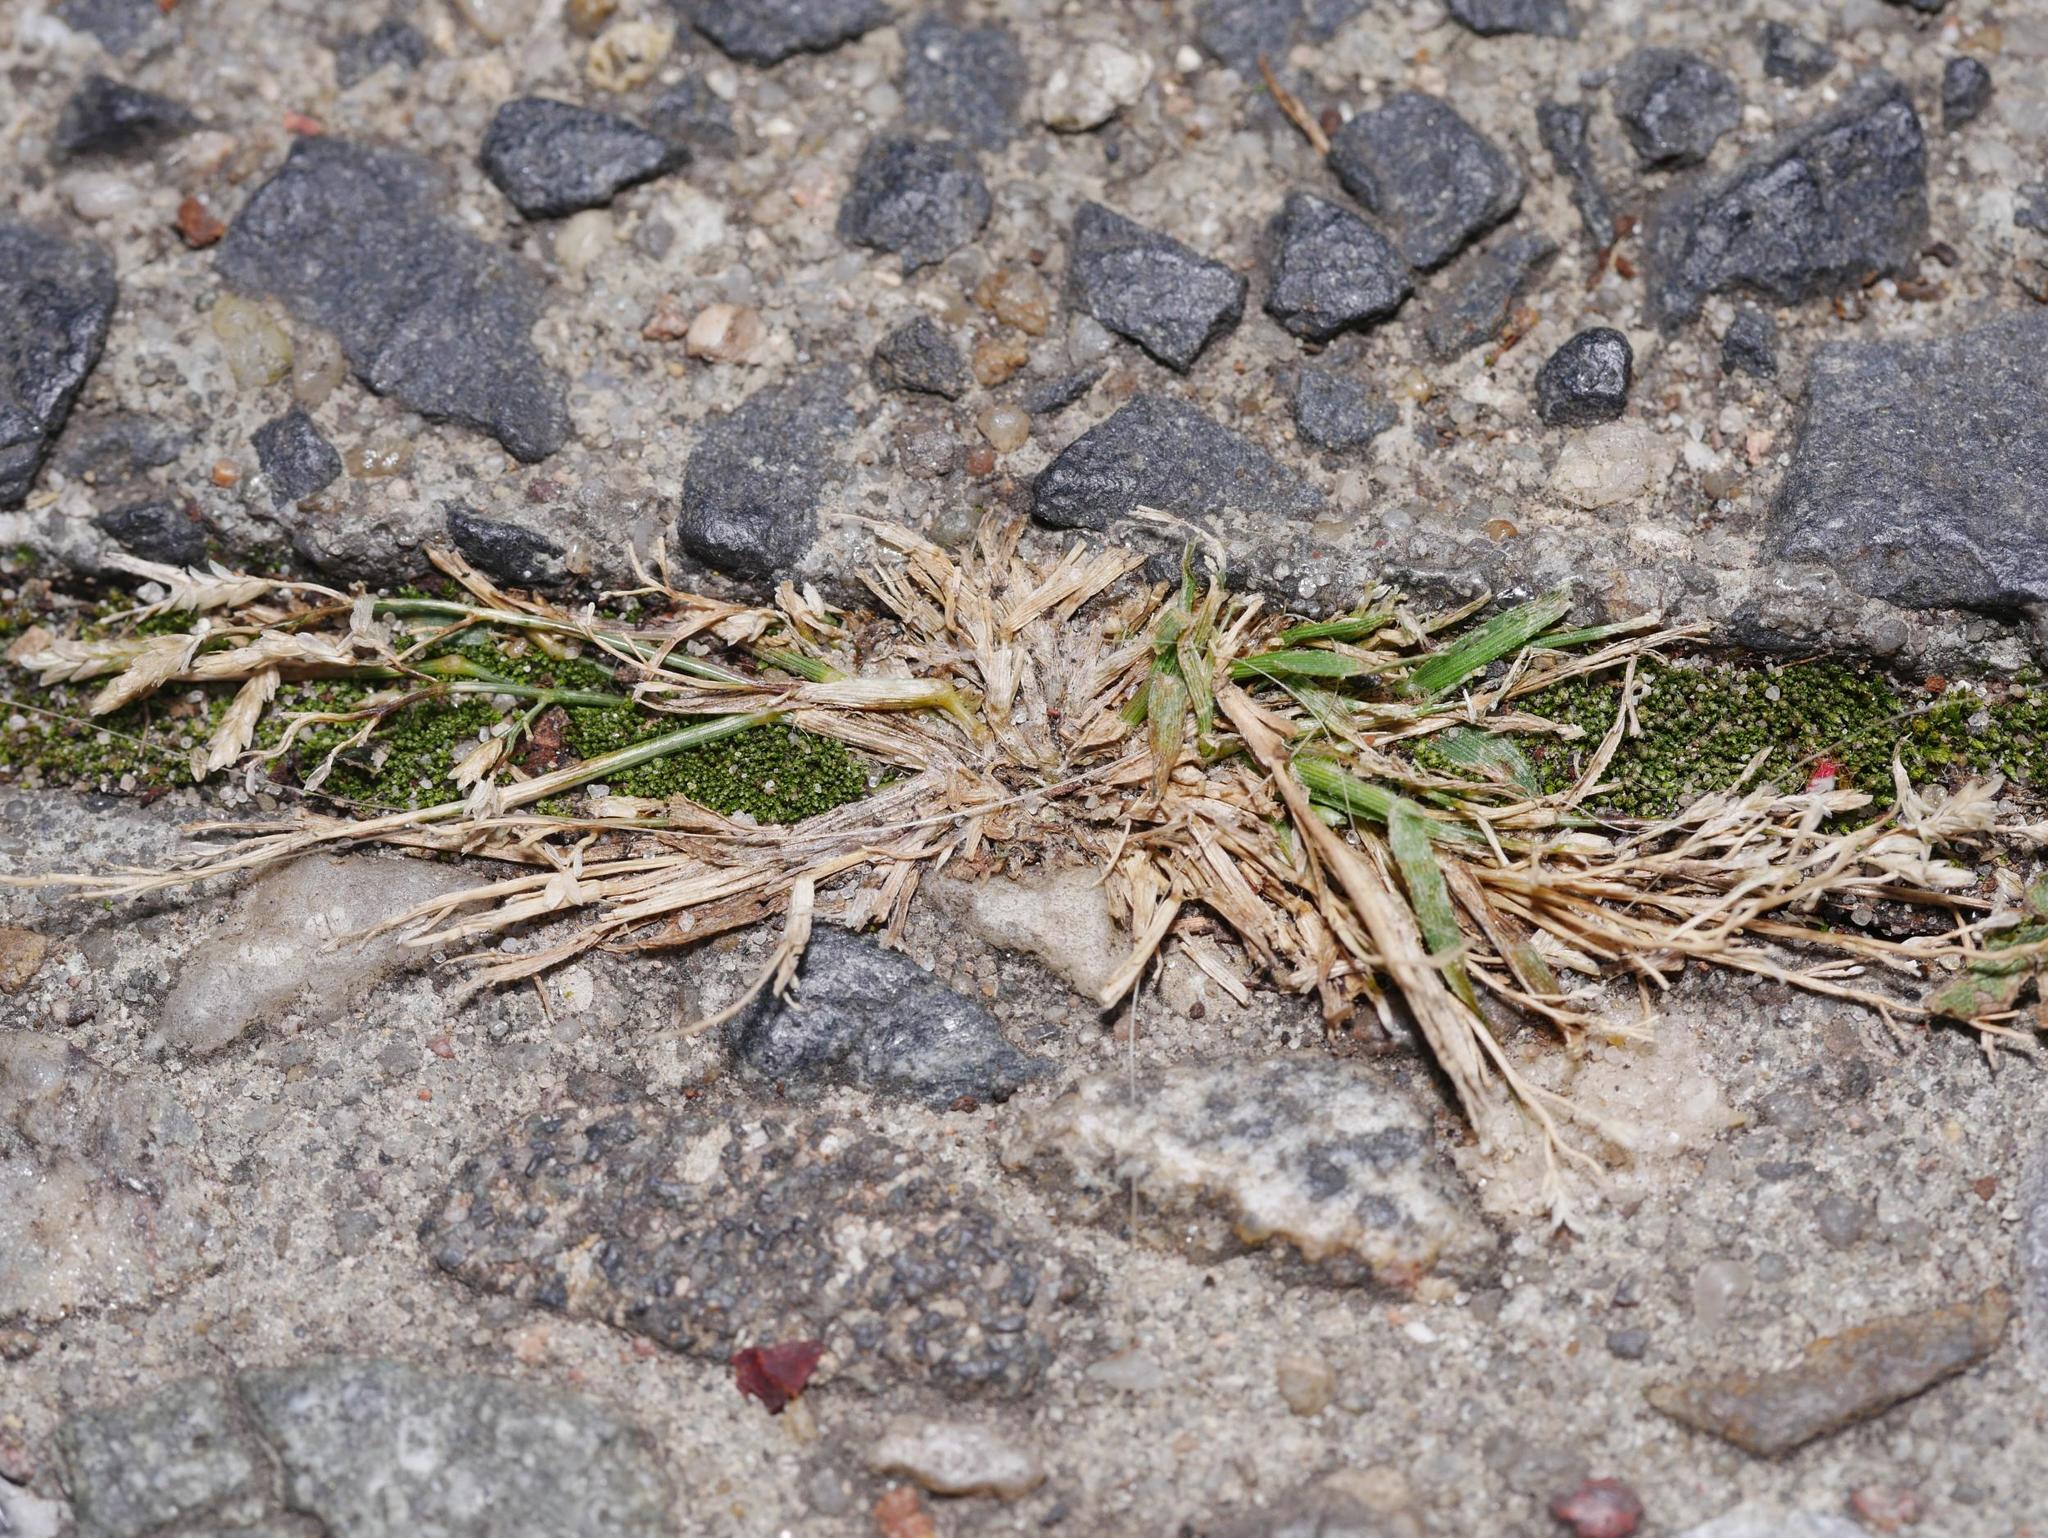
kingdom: Plantae
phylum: Tracheophyta
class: Liliopsida
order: Poales
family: Poaceae
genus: Poa
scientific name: Poa annua
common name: Annual bluegrass
